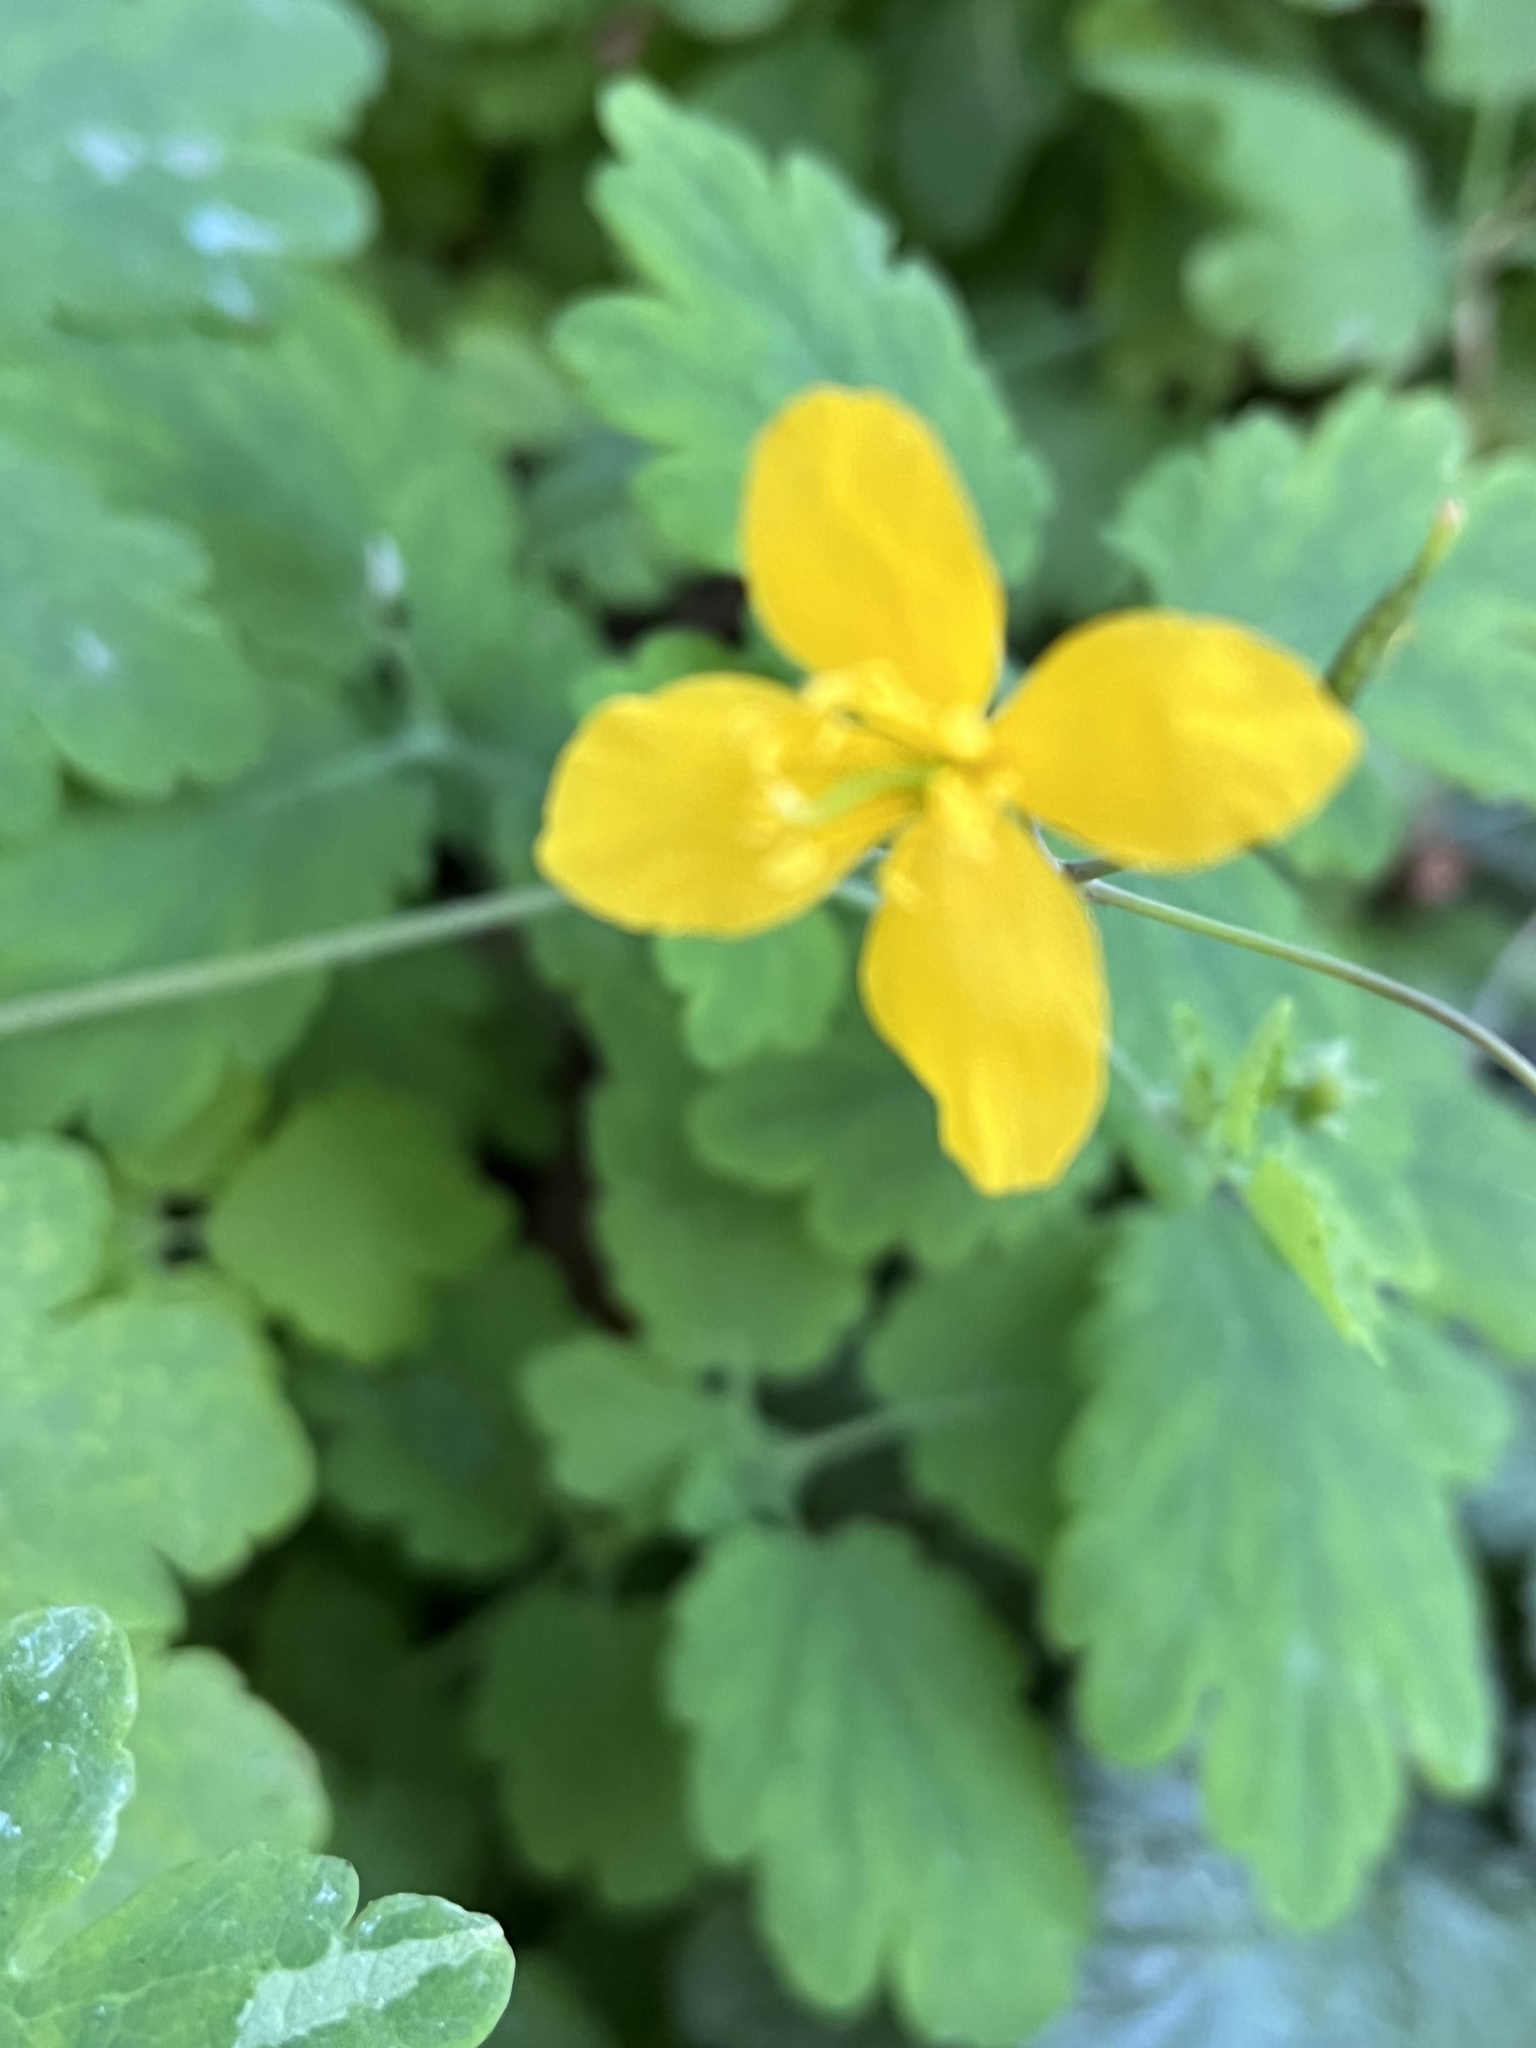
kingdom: Plantae
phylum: Tracheophyta
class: Magnoliopsida
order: Ranunculales
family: Papaveraceae
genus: Chelidonium
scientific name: Chelidonium majus
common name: Greater celandine
